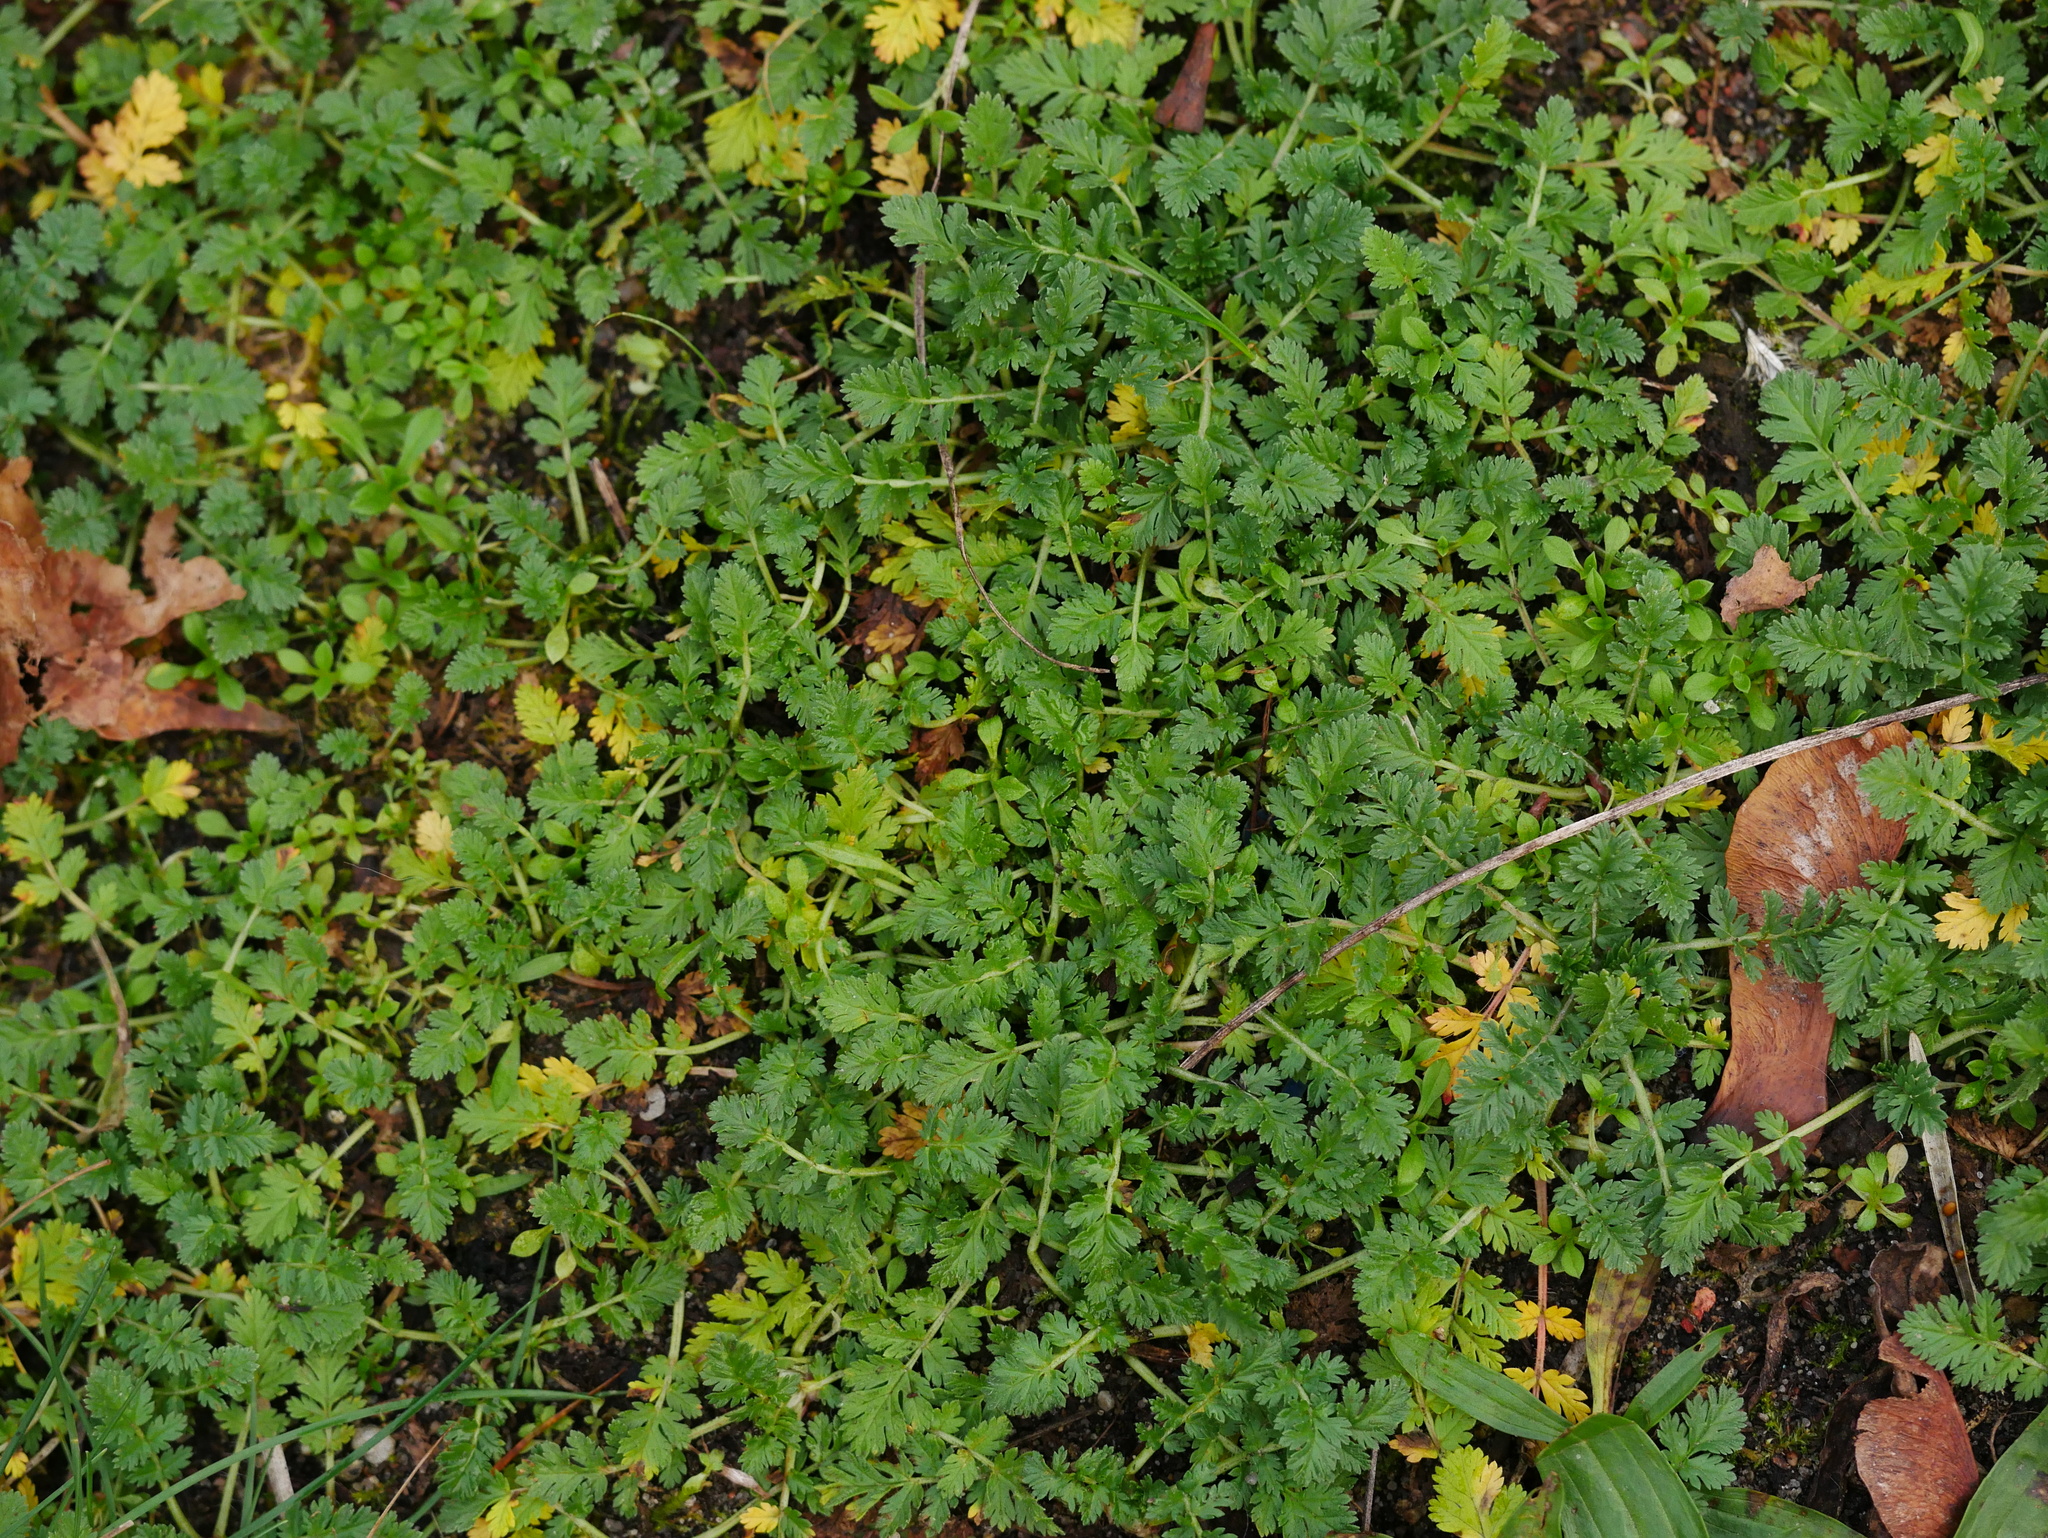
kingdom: Plantae
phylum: Tracheophyta
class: Magnoliopsida
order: Geraniales
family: Geraniaceae
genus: Erodium
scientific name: Erodium cicutarium
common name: Common stork's-bill
